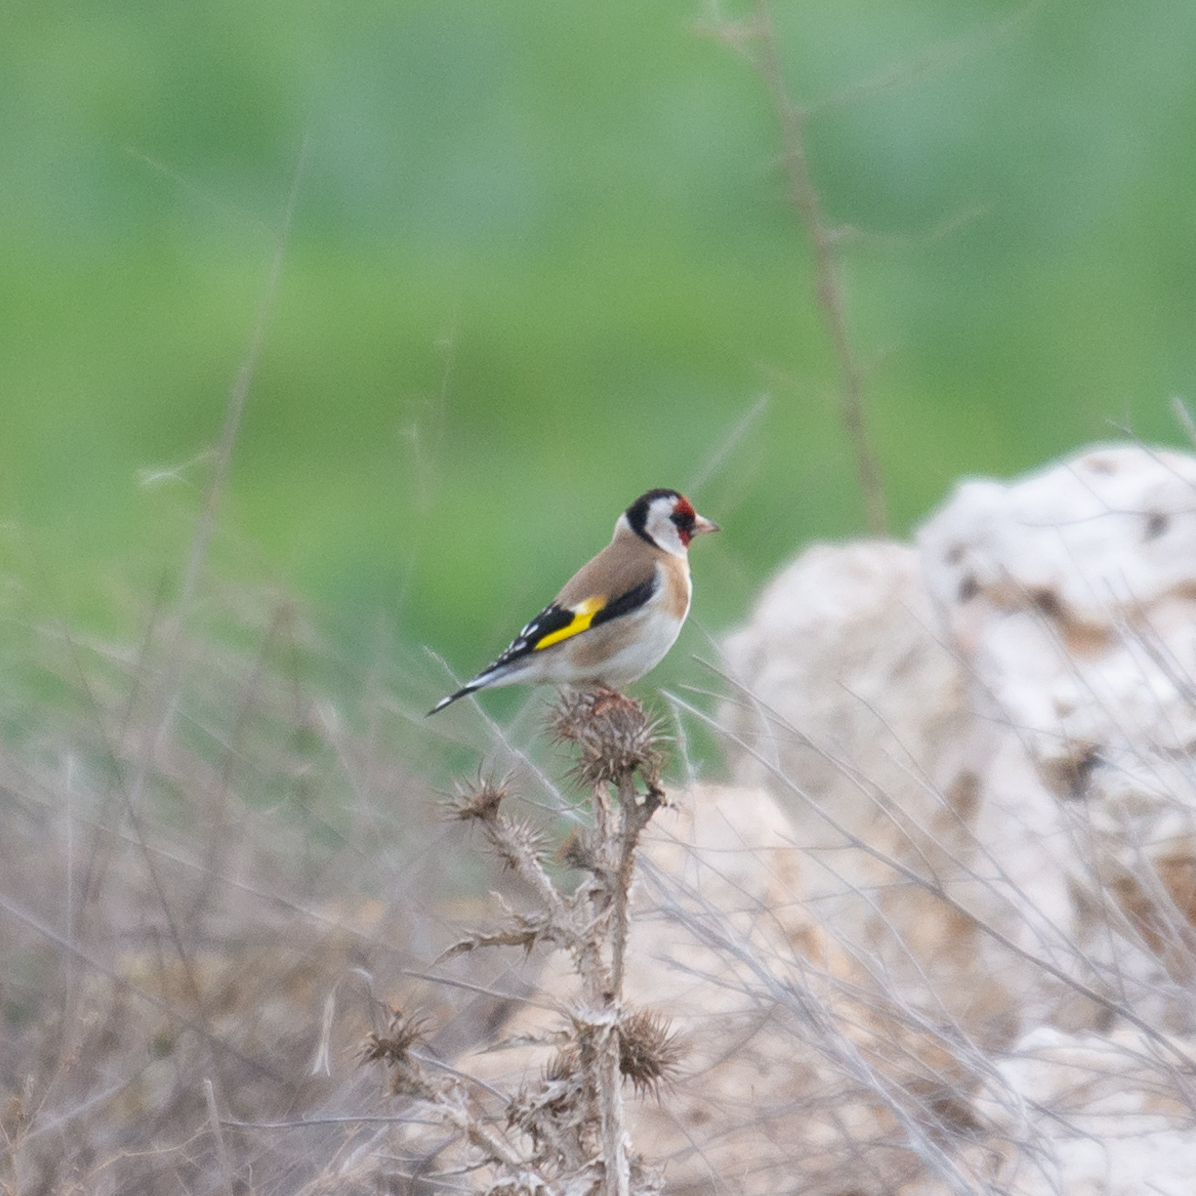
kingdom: Animalia
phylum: Chordata
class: Aves
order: Passeriformes
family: Fringillidae
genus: Carduelis
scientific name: Carduelis carduelis
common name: European goldfinch
